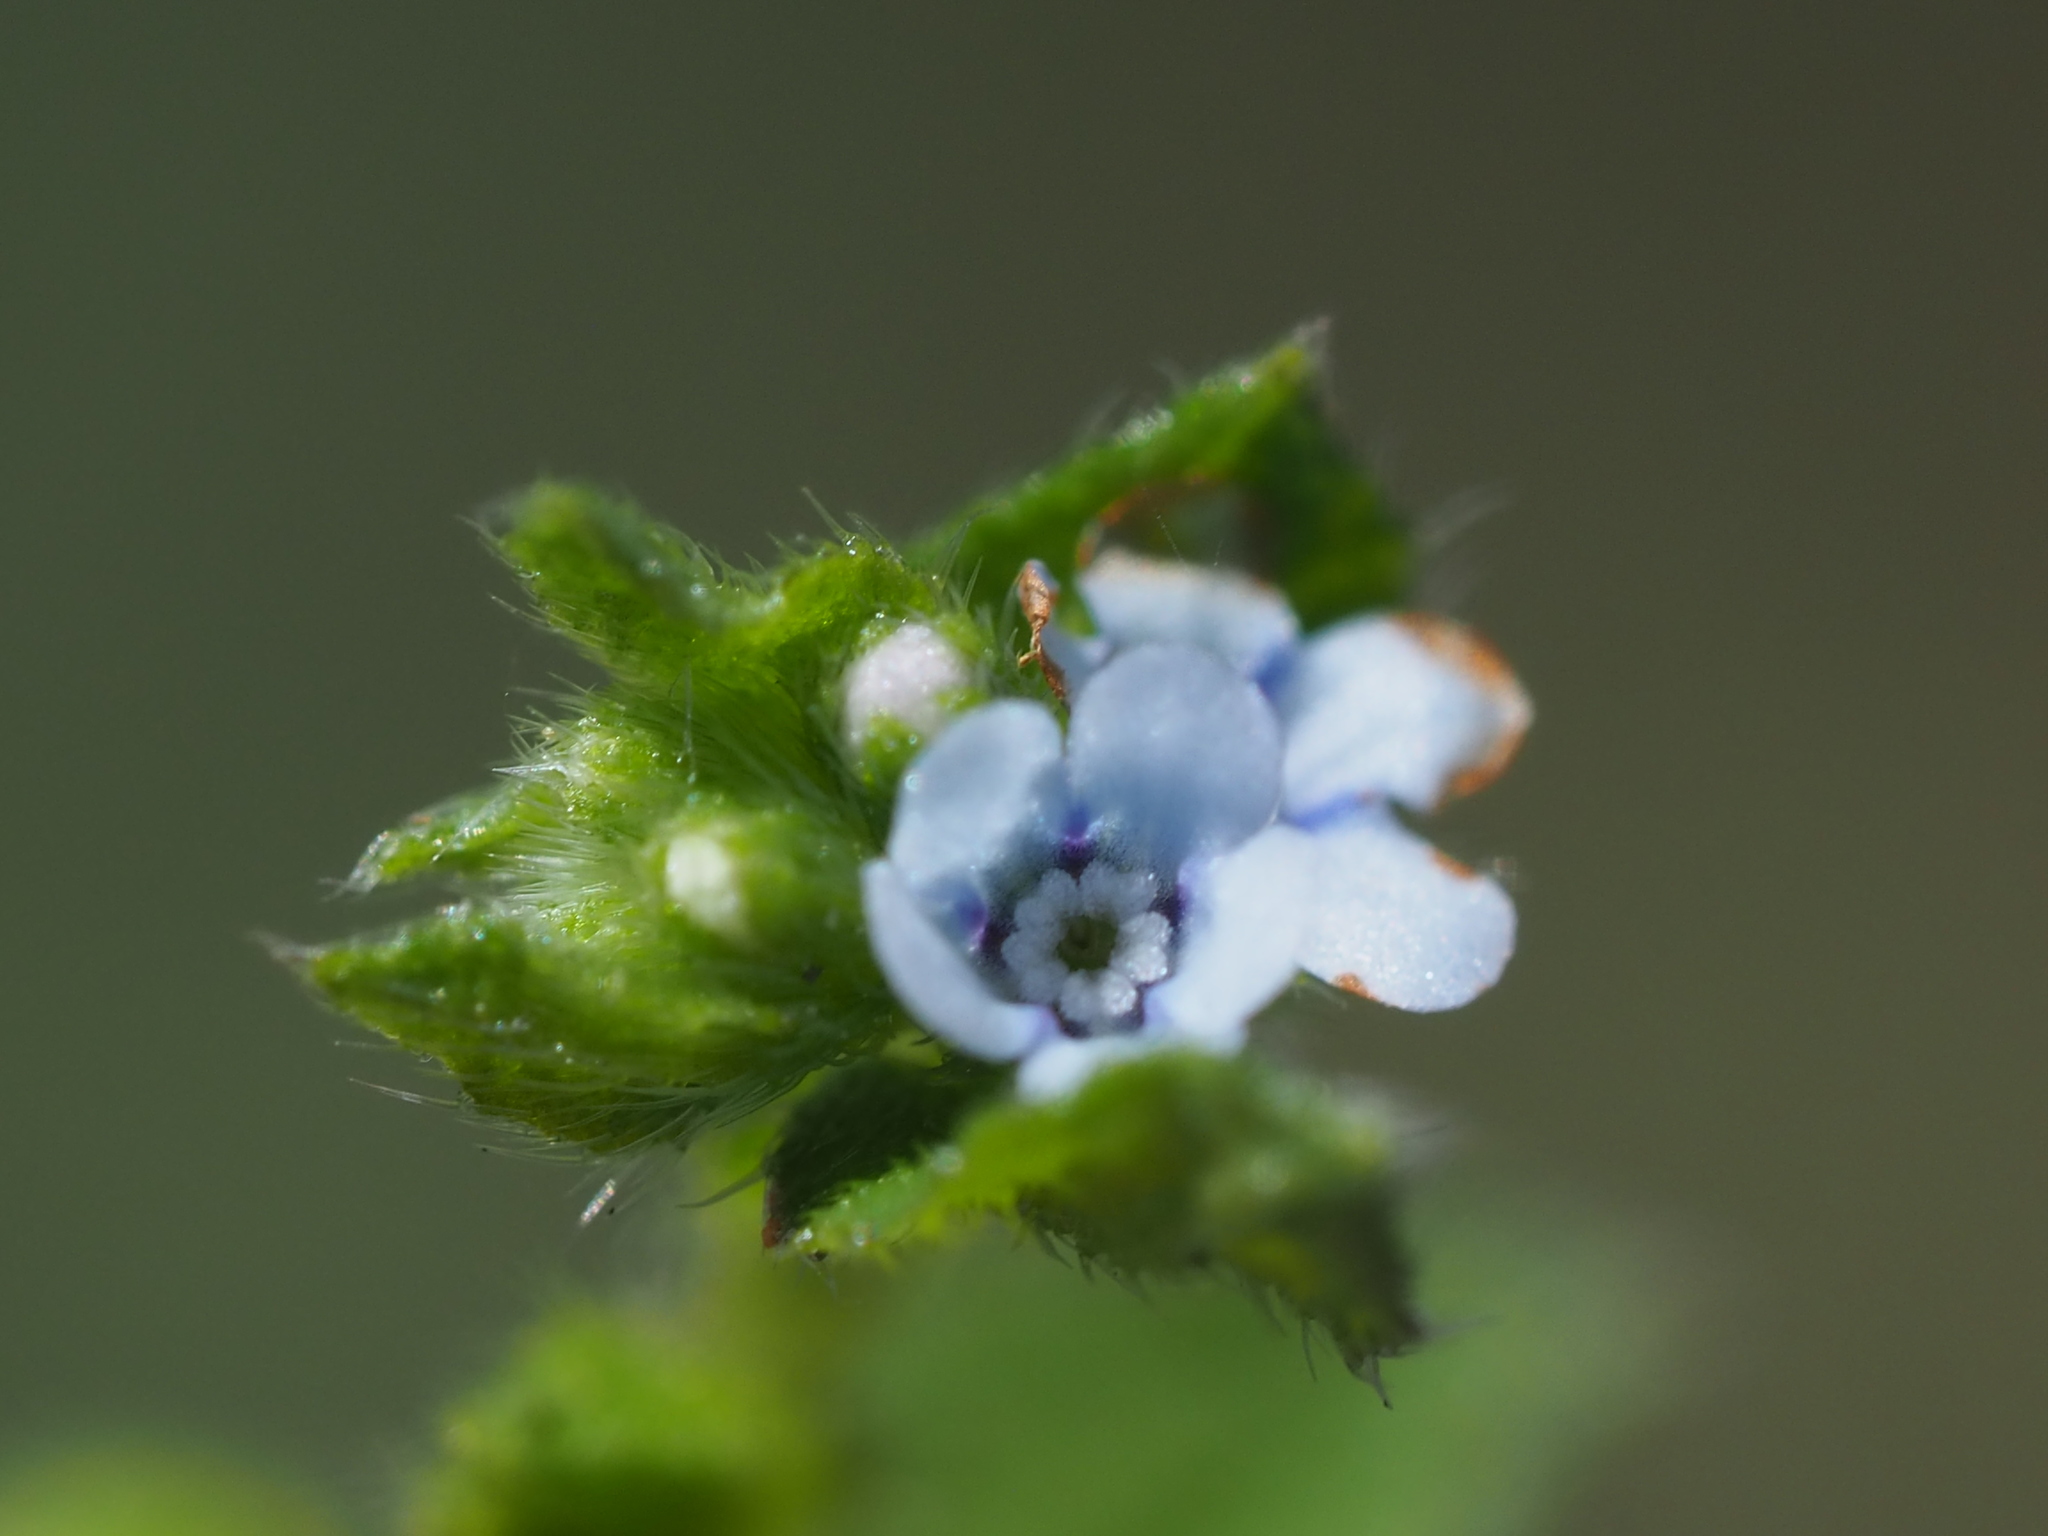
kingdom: Plantae
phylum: Tracheophyta
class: Magnoliopsida
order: Boraginales
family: Boraginaceae
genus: Bothriospermum
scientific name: Bothriospermum zeylanicum
